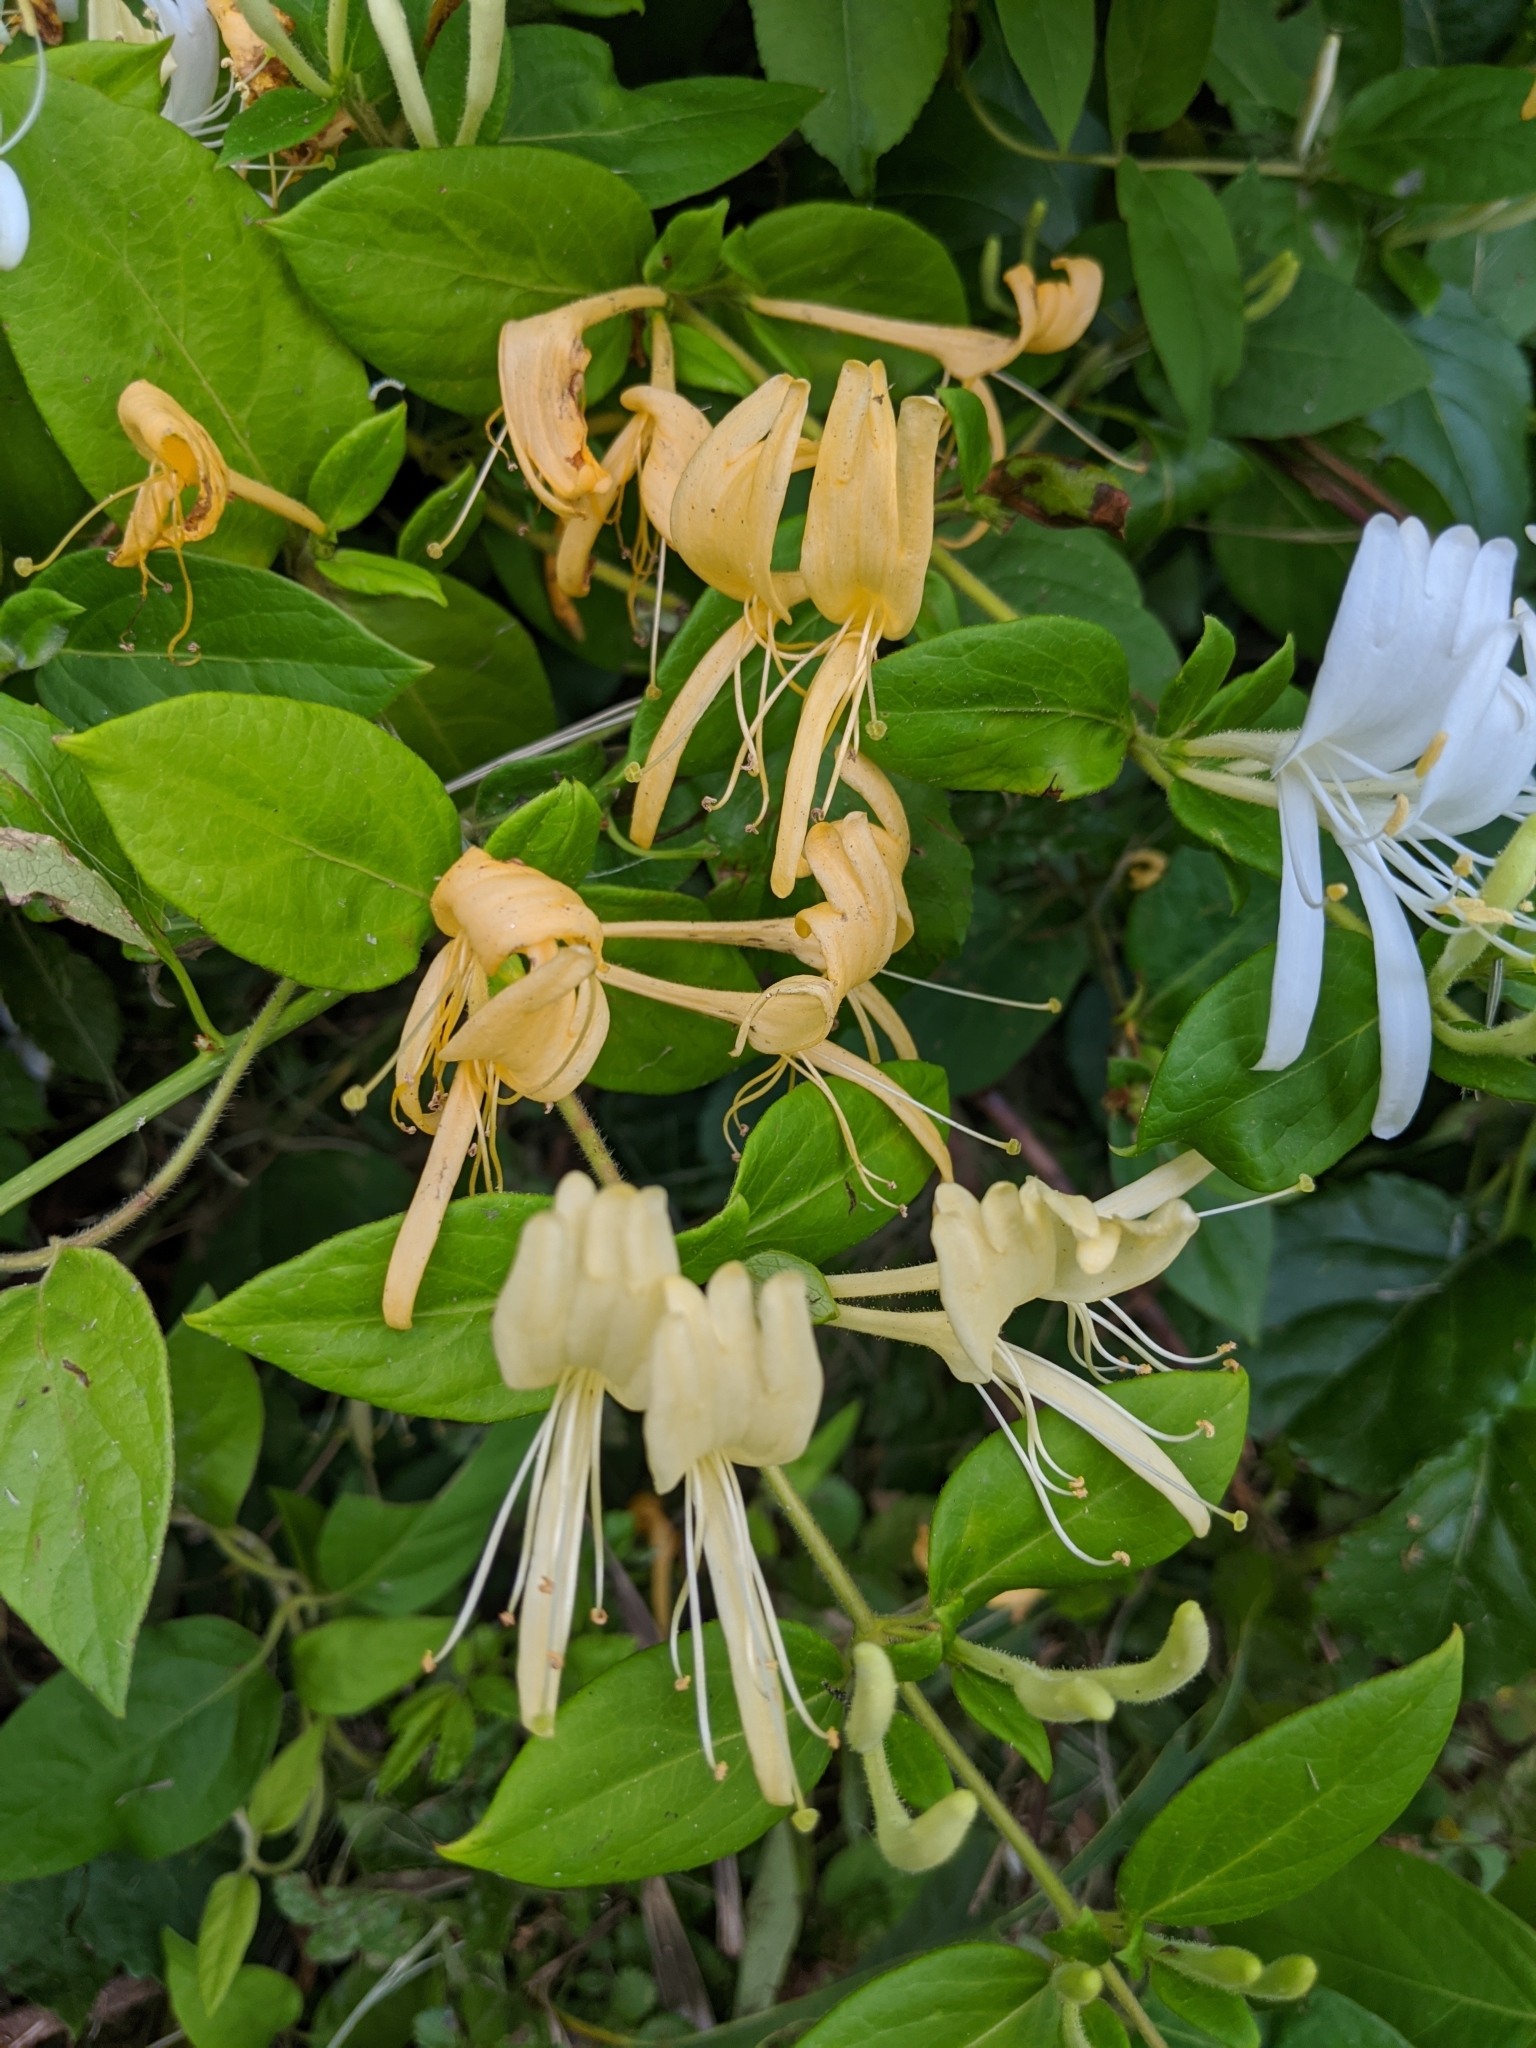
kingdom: Plantae
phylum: Tracheophyta
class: Magnoliopsida
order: Dipsacales
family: Caprifoliaceae
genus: Lonicera
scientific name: Lonicera japonica
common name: Japanese honeysuckle
